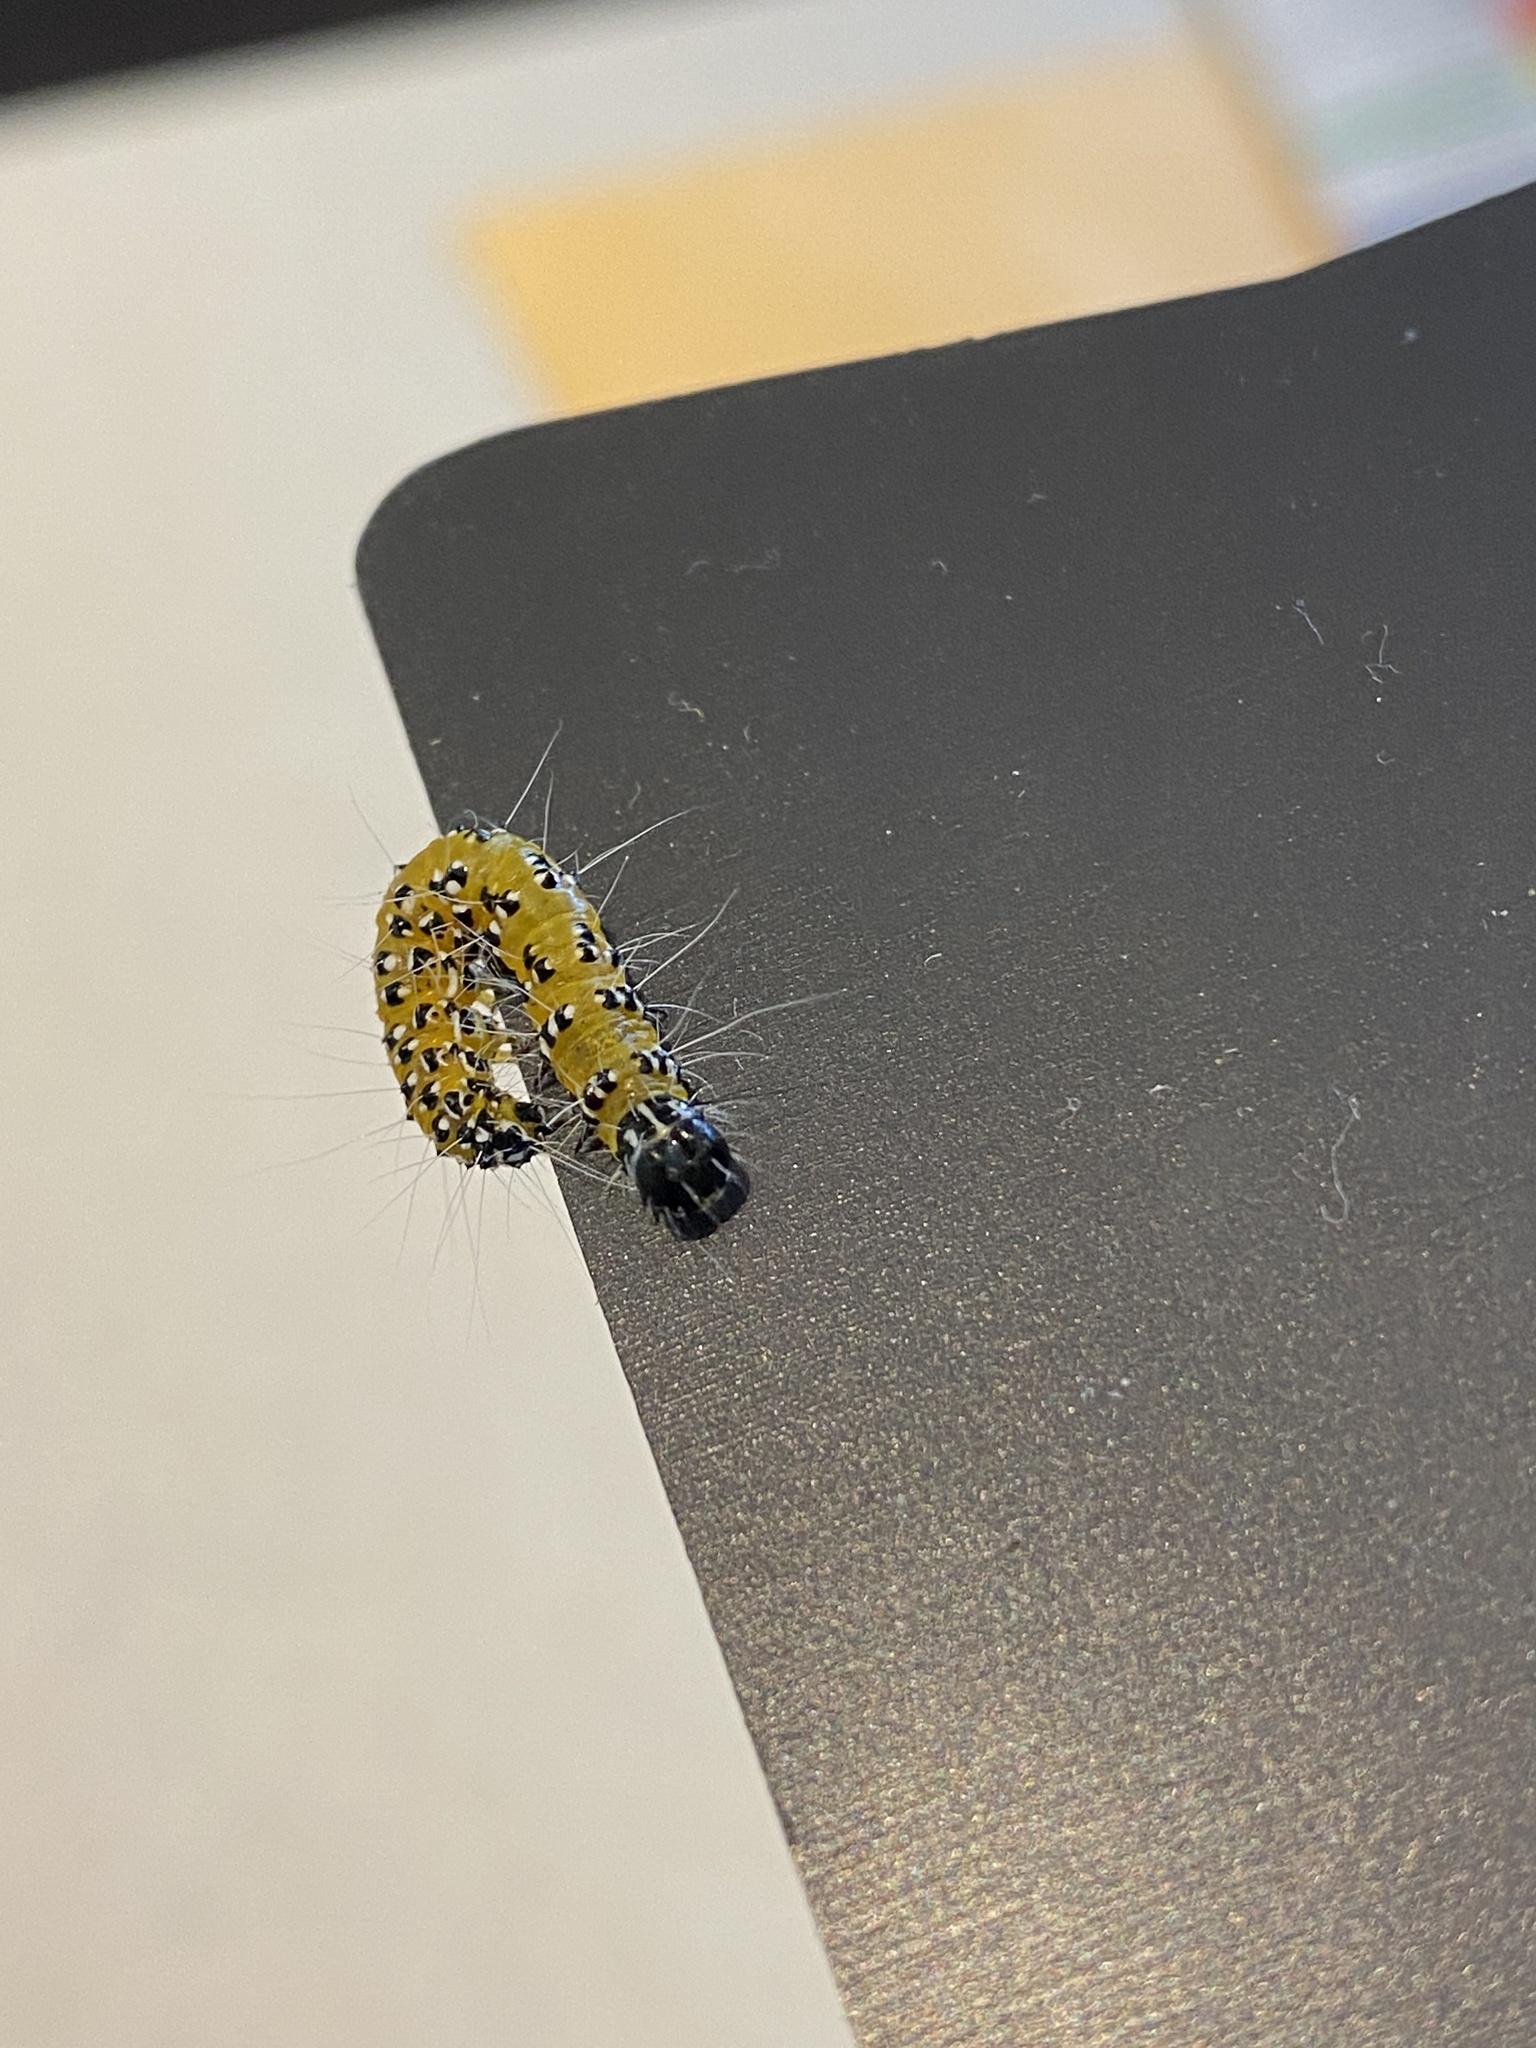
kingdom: Animalia
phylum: Arthropoda
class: Insecta
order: Lepidoptera
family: Crambidae
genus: Uresiphita
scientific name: Uresiphita reversalis
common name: Genista broom moth
